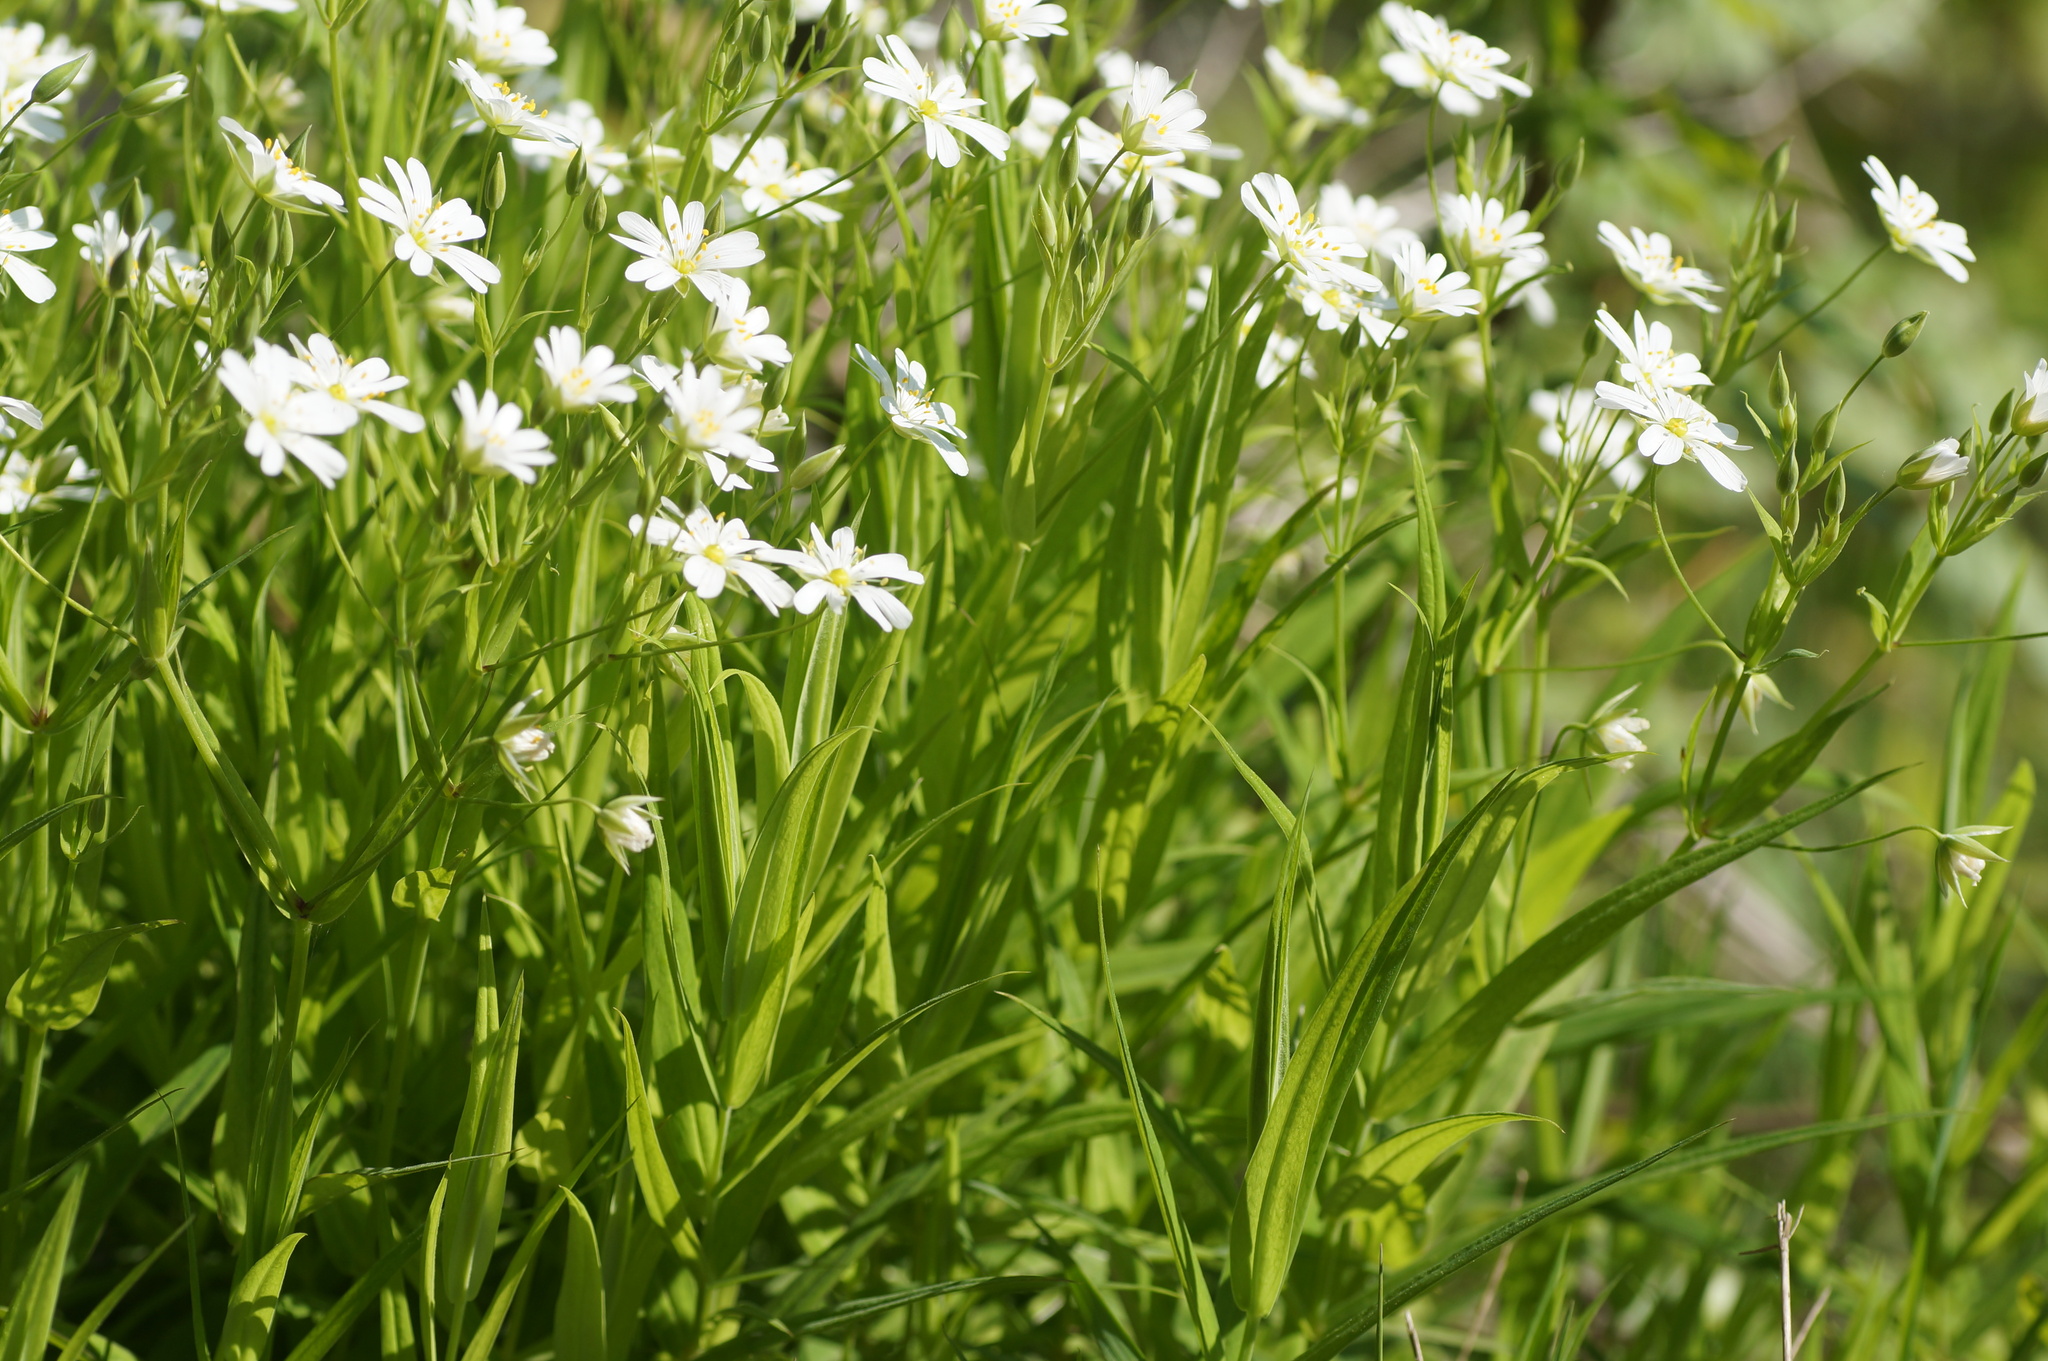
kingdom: Plantae
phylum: Tracheophyta
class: Magnoliopsida
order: Caryophyllales
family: Caryophyllaceae
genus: Rabelera
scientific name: Rabelera holostea
